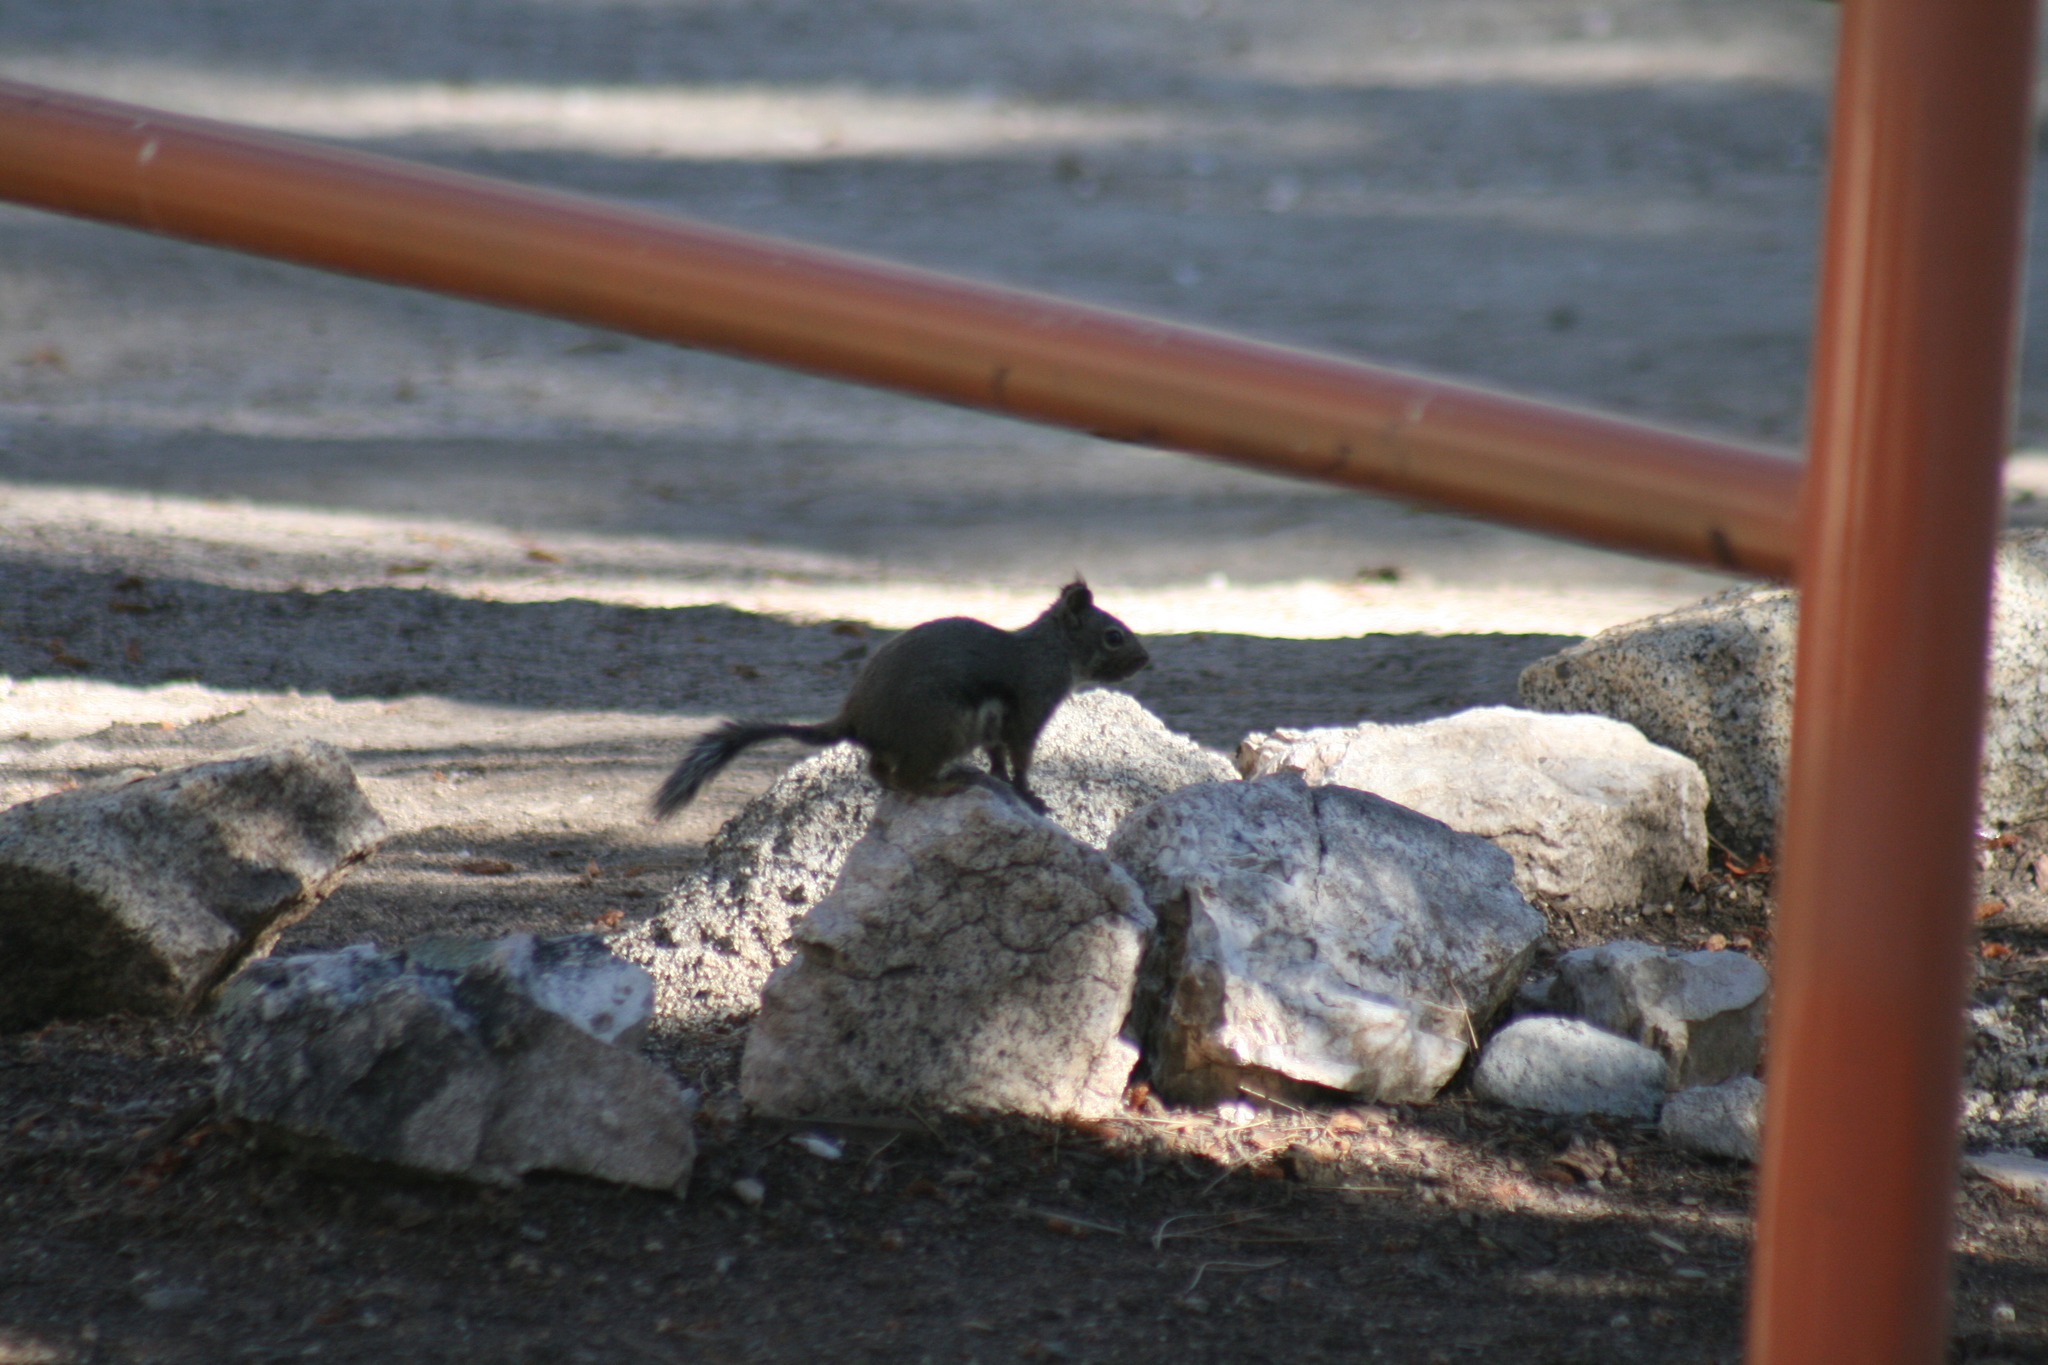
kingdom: Animalia
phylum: Chordata
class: Mammalia
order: Rodentia
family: Sciuridae
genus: Tamiasciurus
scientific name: Tamiasciurus douglasii
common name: Douglas's squirrel
